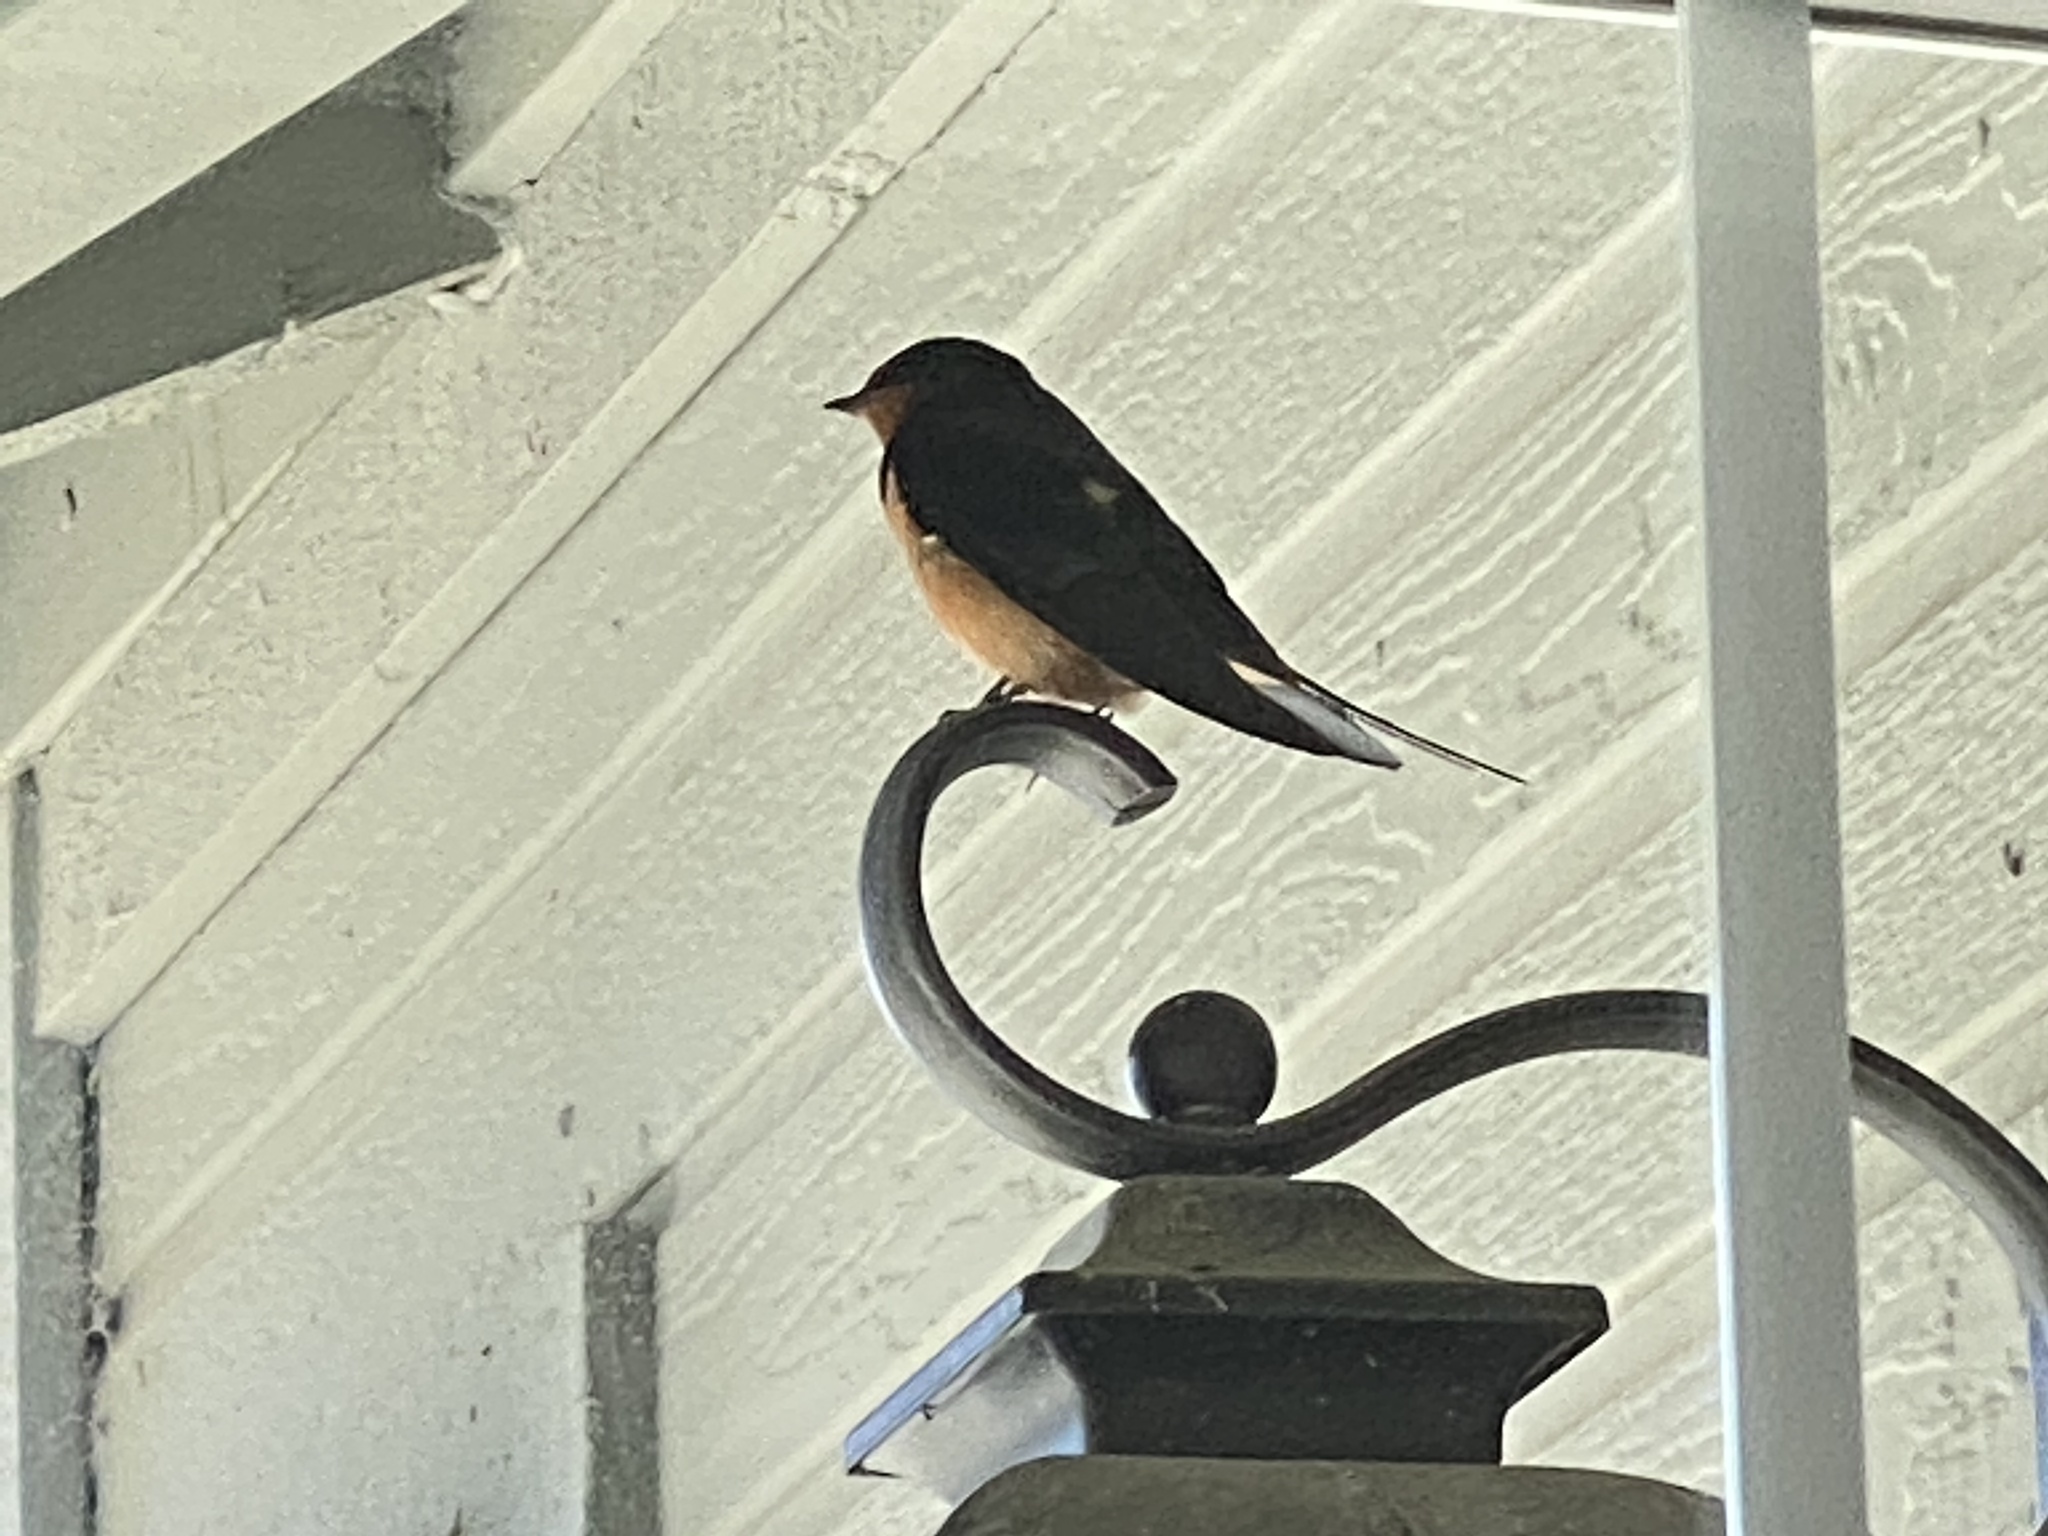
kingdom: Animalia
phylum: Chordata
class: Aves
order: Passeriformes
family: Hirundinidae
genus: Hirundo
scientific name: Hirundo rustica
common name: Barn swallow
